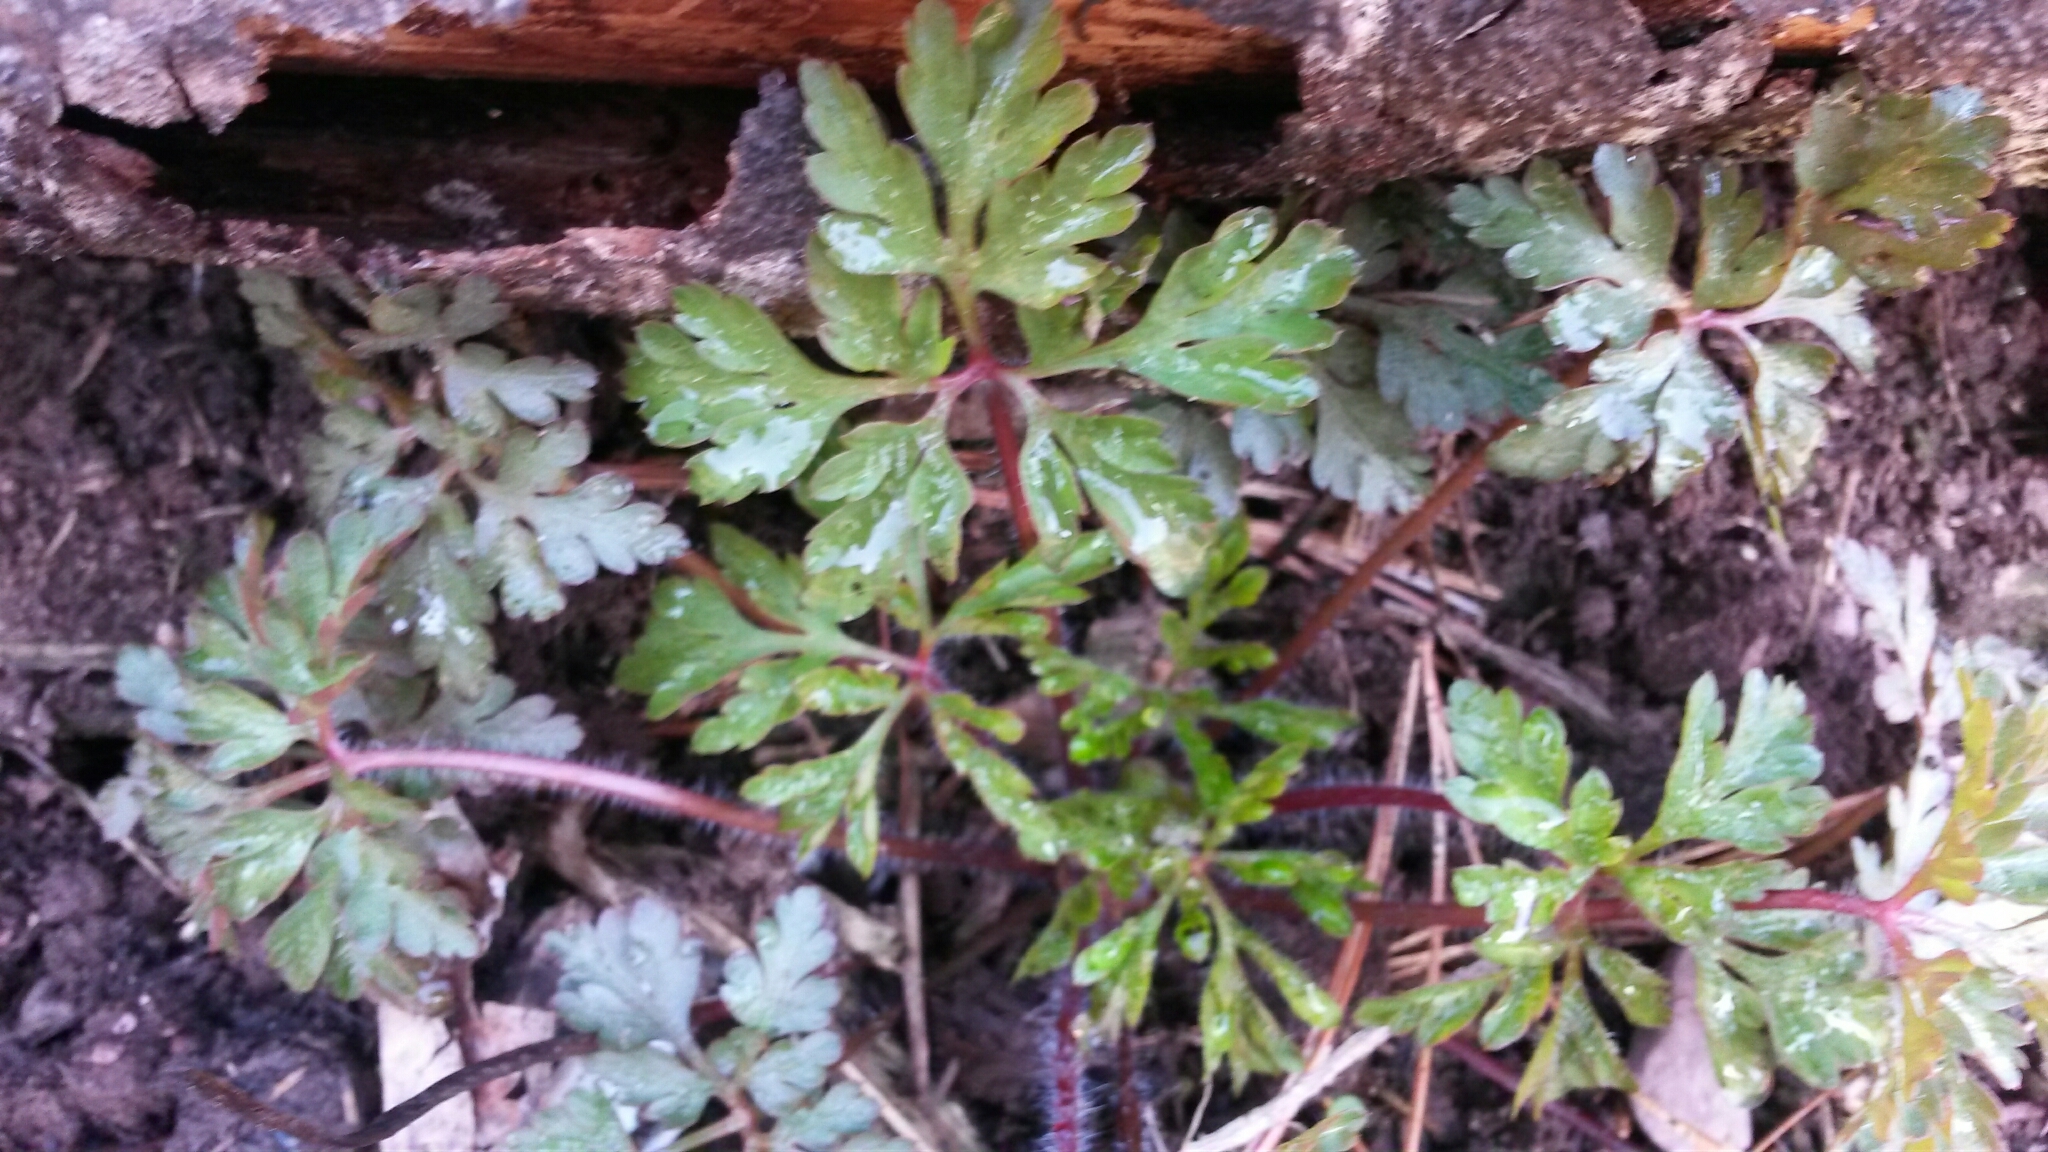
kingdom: Plantae
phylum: Tracheophyta
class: Magnoliopsida
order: Geraniales
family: Geraniaceae
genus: Geranium
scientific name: Geranium robertianum
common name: Herb-robert
